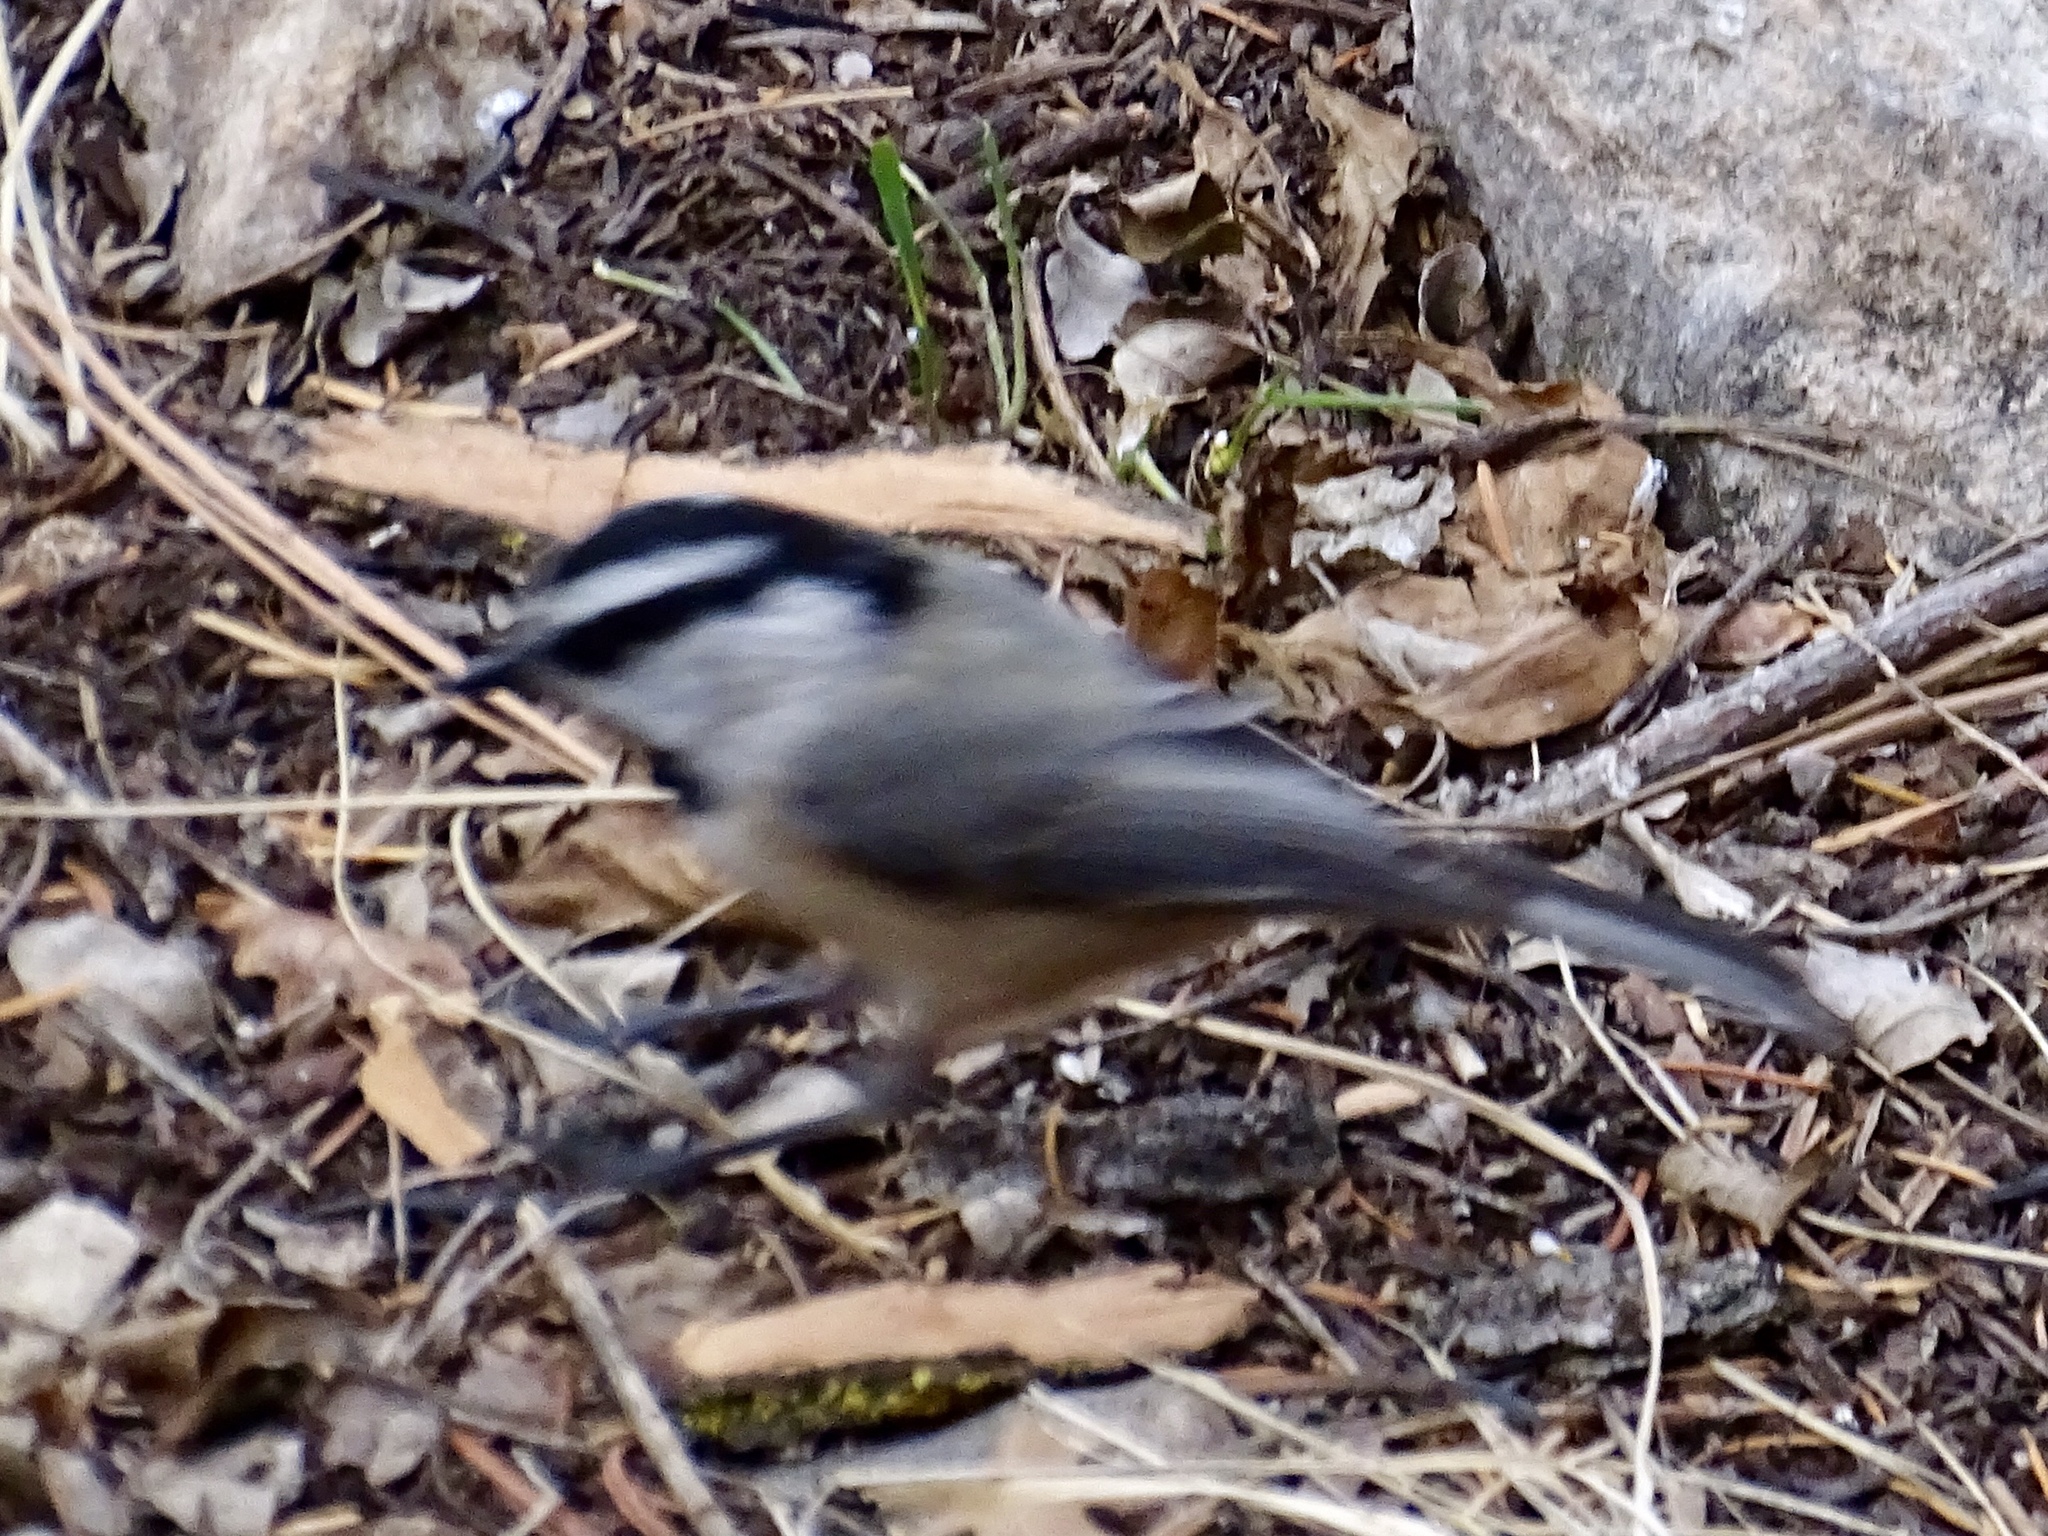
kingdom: Animalia
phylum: Chordata
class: Aves
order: Passeriformes
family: Paridae
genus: Poecile
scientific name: Poecile gambeli
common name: Mountain chickadee
